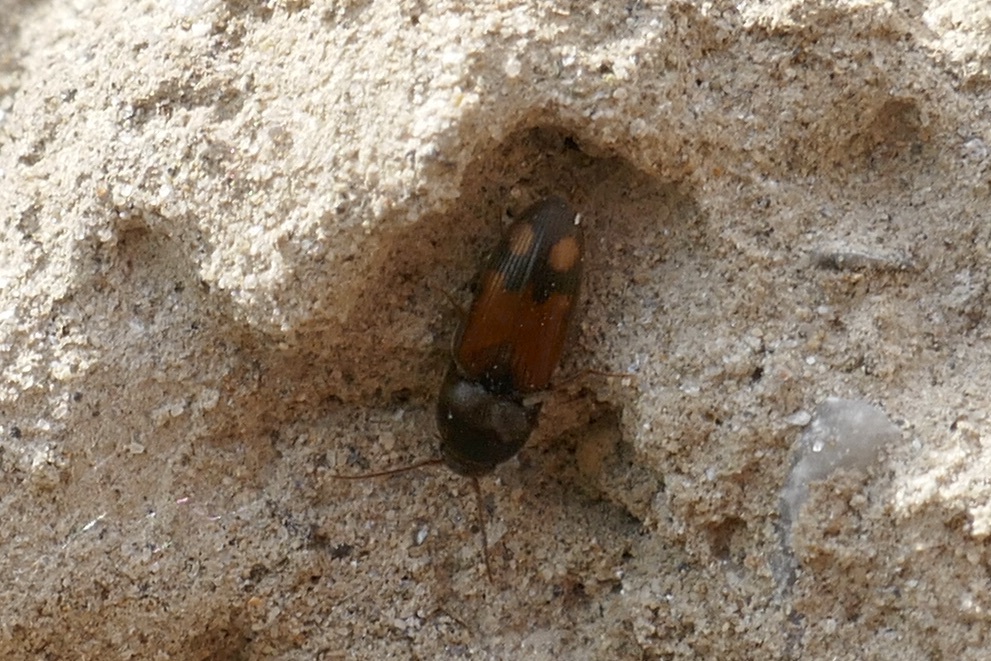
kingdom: Animalia
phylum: Arthropoda
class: Insecta
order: Coleoptera
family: Elateridae
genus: Drasterius
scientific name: Drasterius bimaculatus
